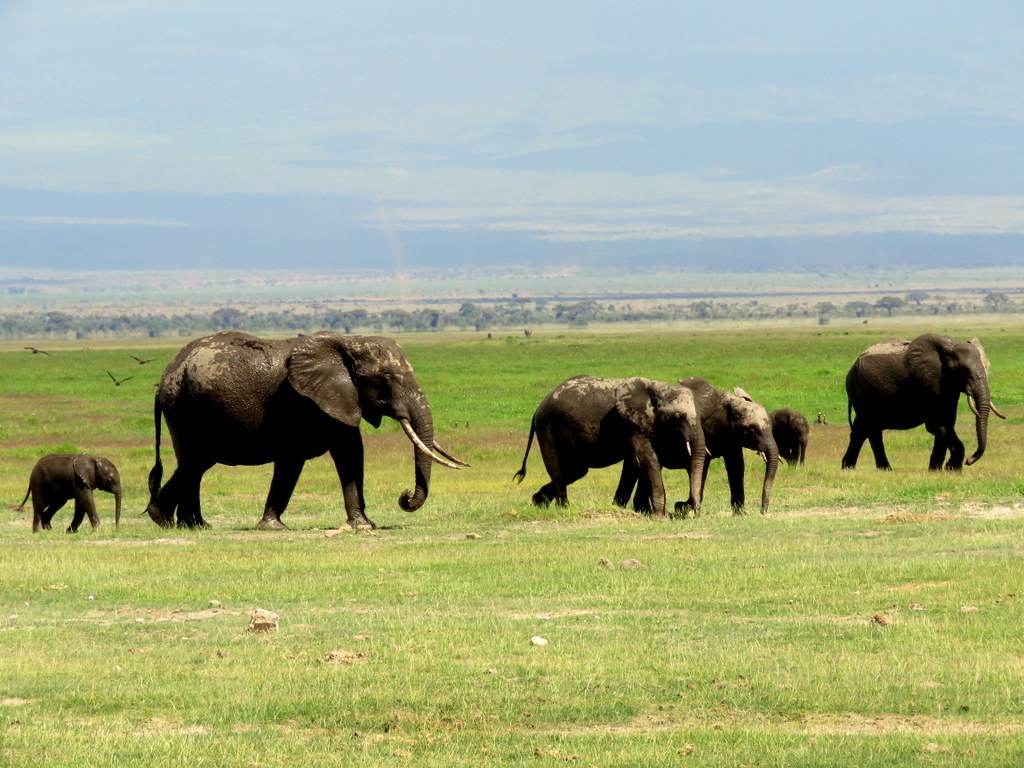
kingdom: Animalia
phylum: Chordata
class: Mammalia
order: Proboscidea
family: Elephantidae
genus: Loxodonta
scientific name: Loxodonta africana
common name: African elephant
